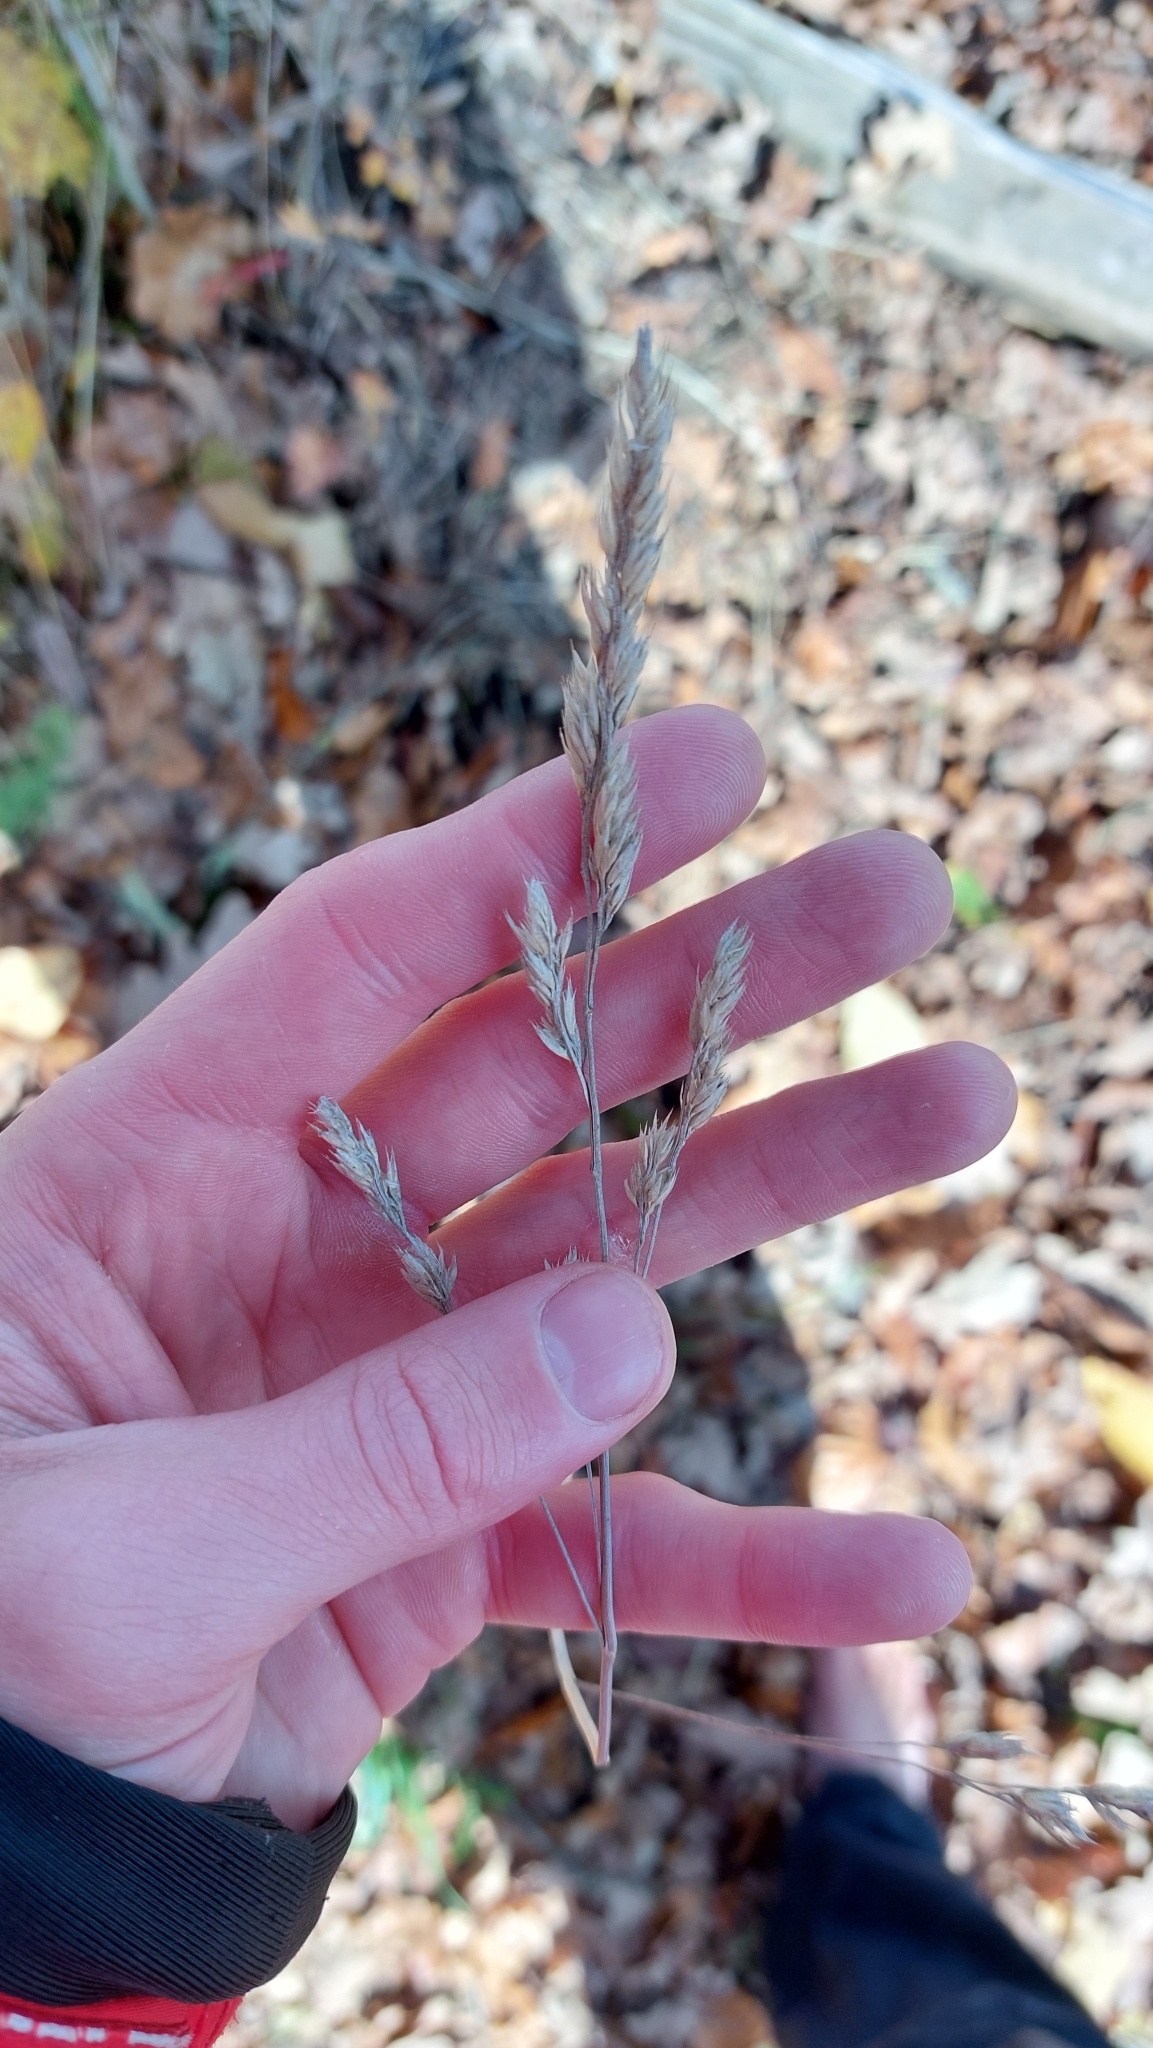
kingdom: Plantae
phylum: Tracheophyta
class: Liliopsida
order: Poales
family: Poaceae
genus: Dactylis
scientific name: Dactylis glomerata
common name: Orchardgrass
